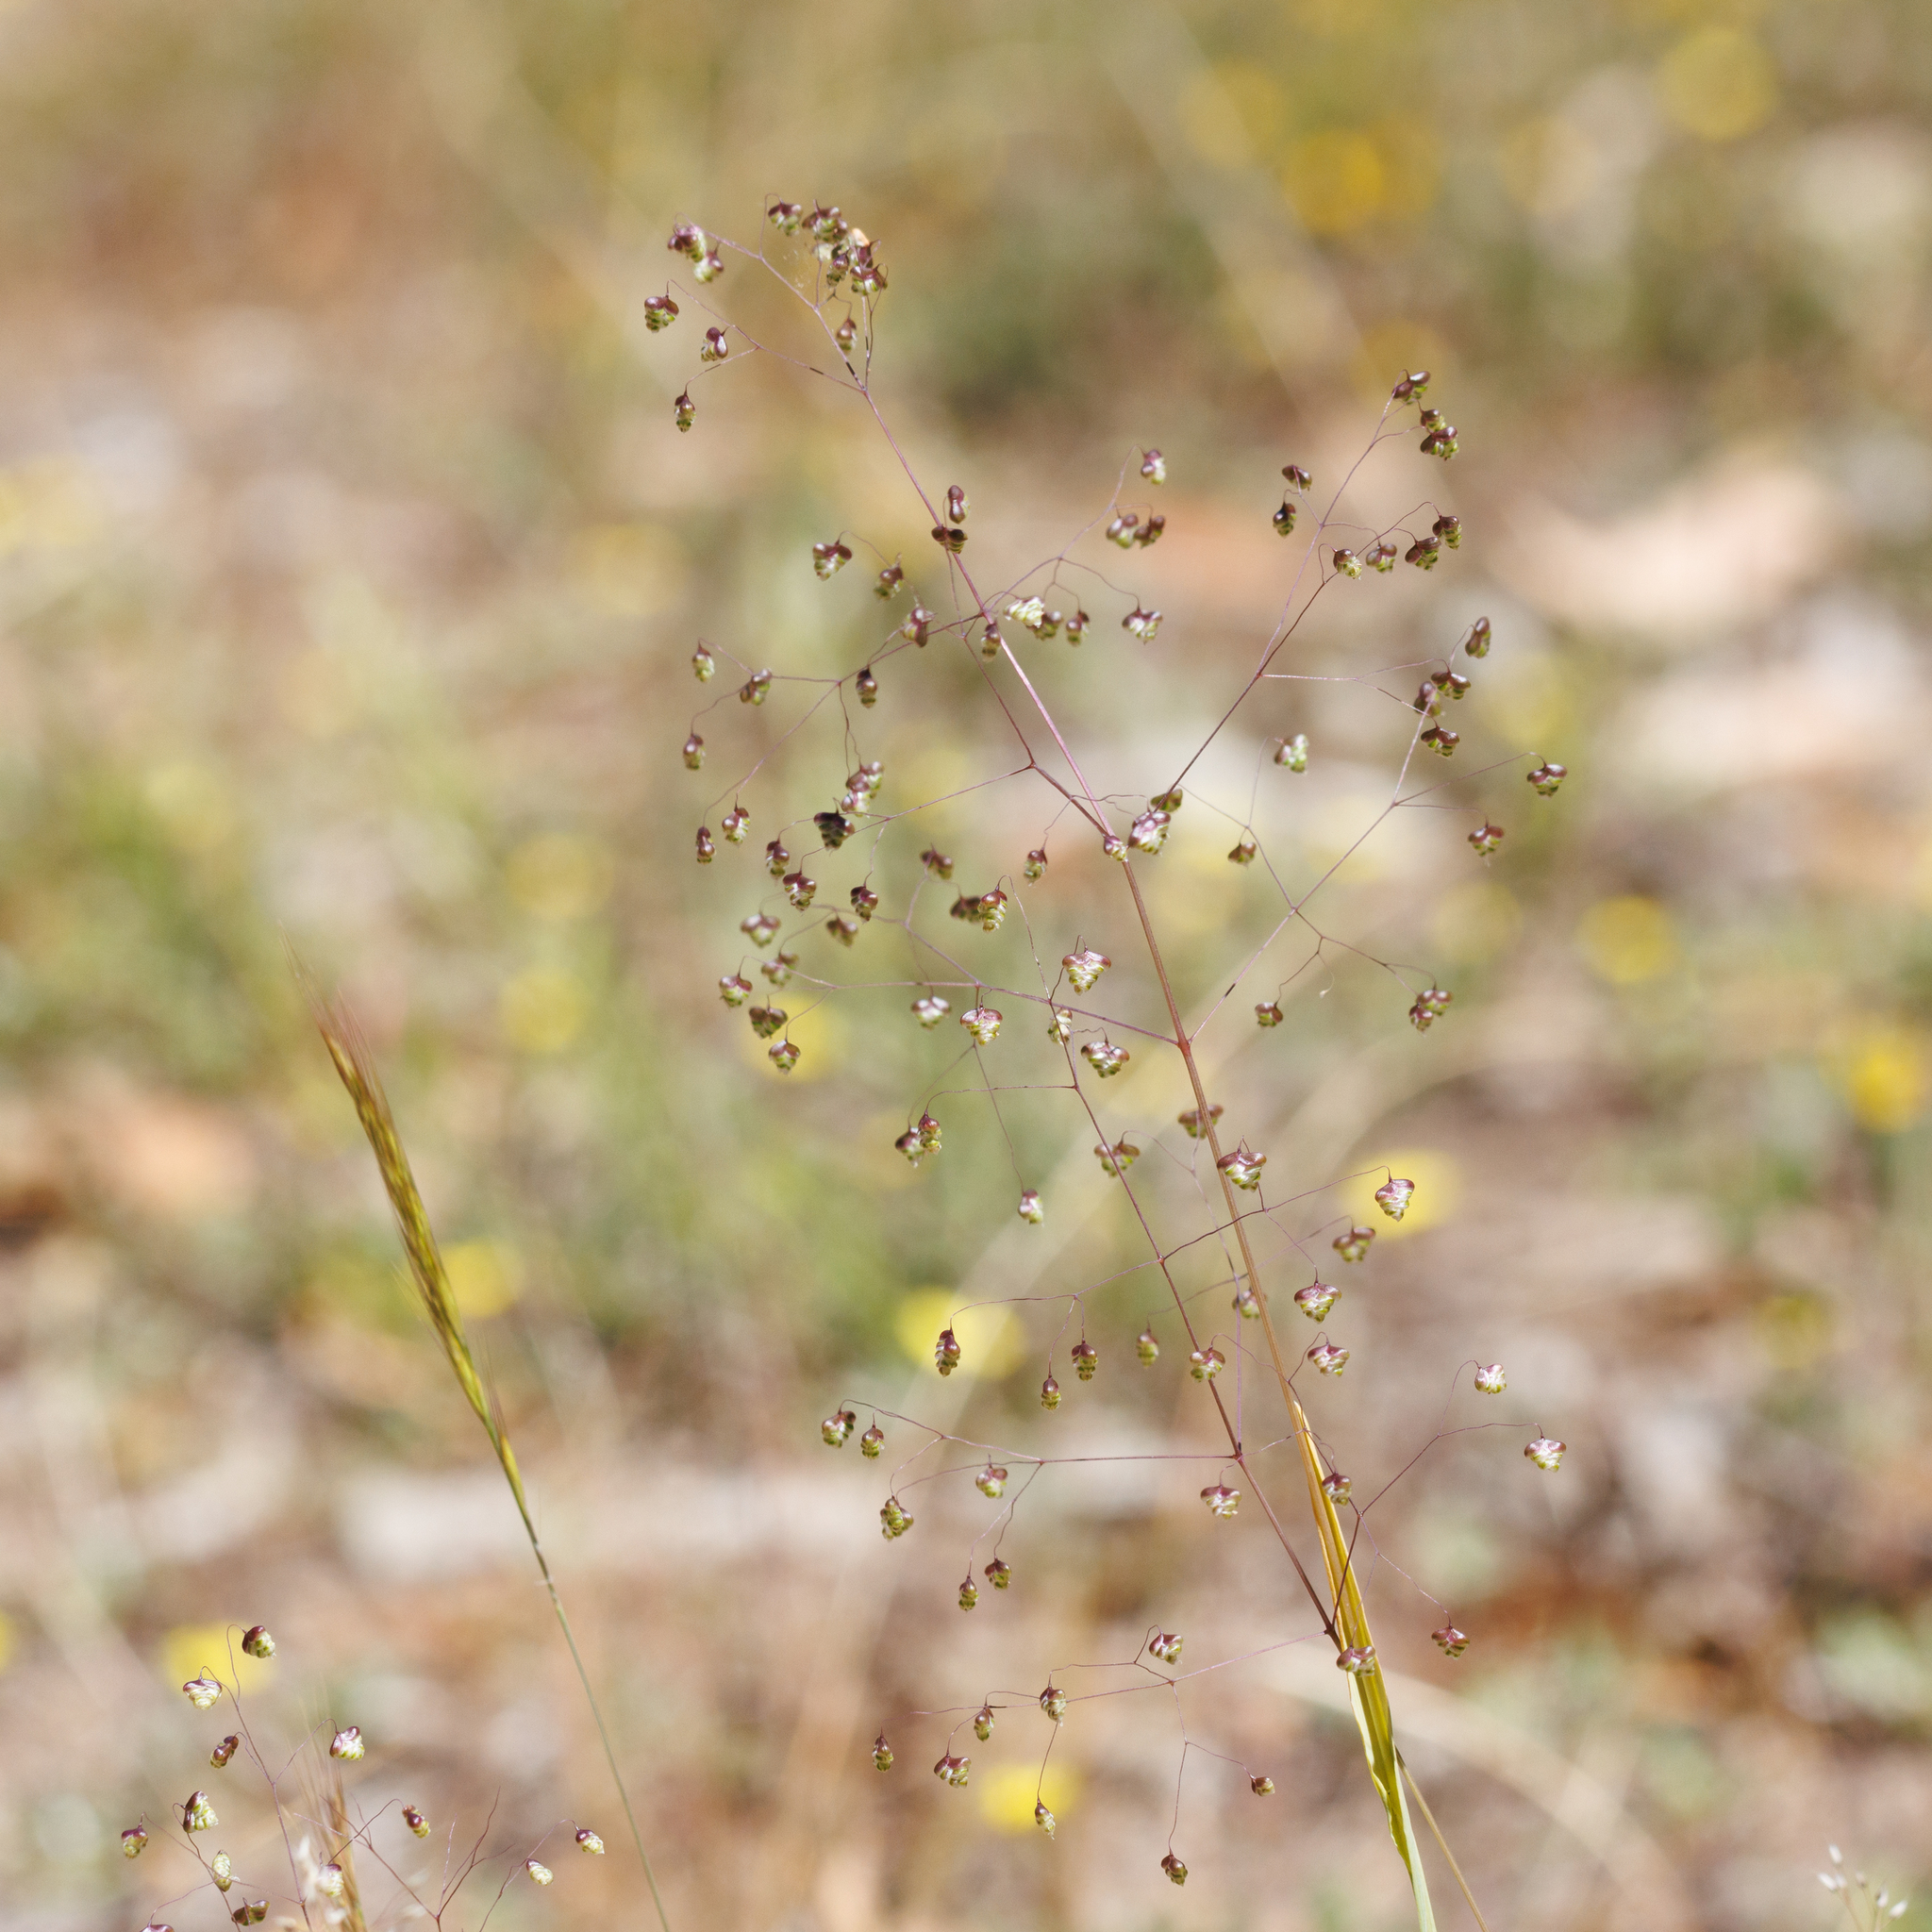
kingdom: Plantae
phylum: Tracheophyta
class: Liliopsida
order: Poales
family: Poaceae
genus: Briza
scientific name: Briza minor
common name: Lesser quaking-grass
